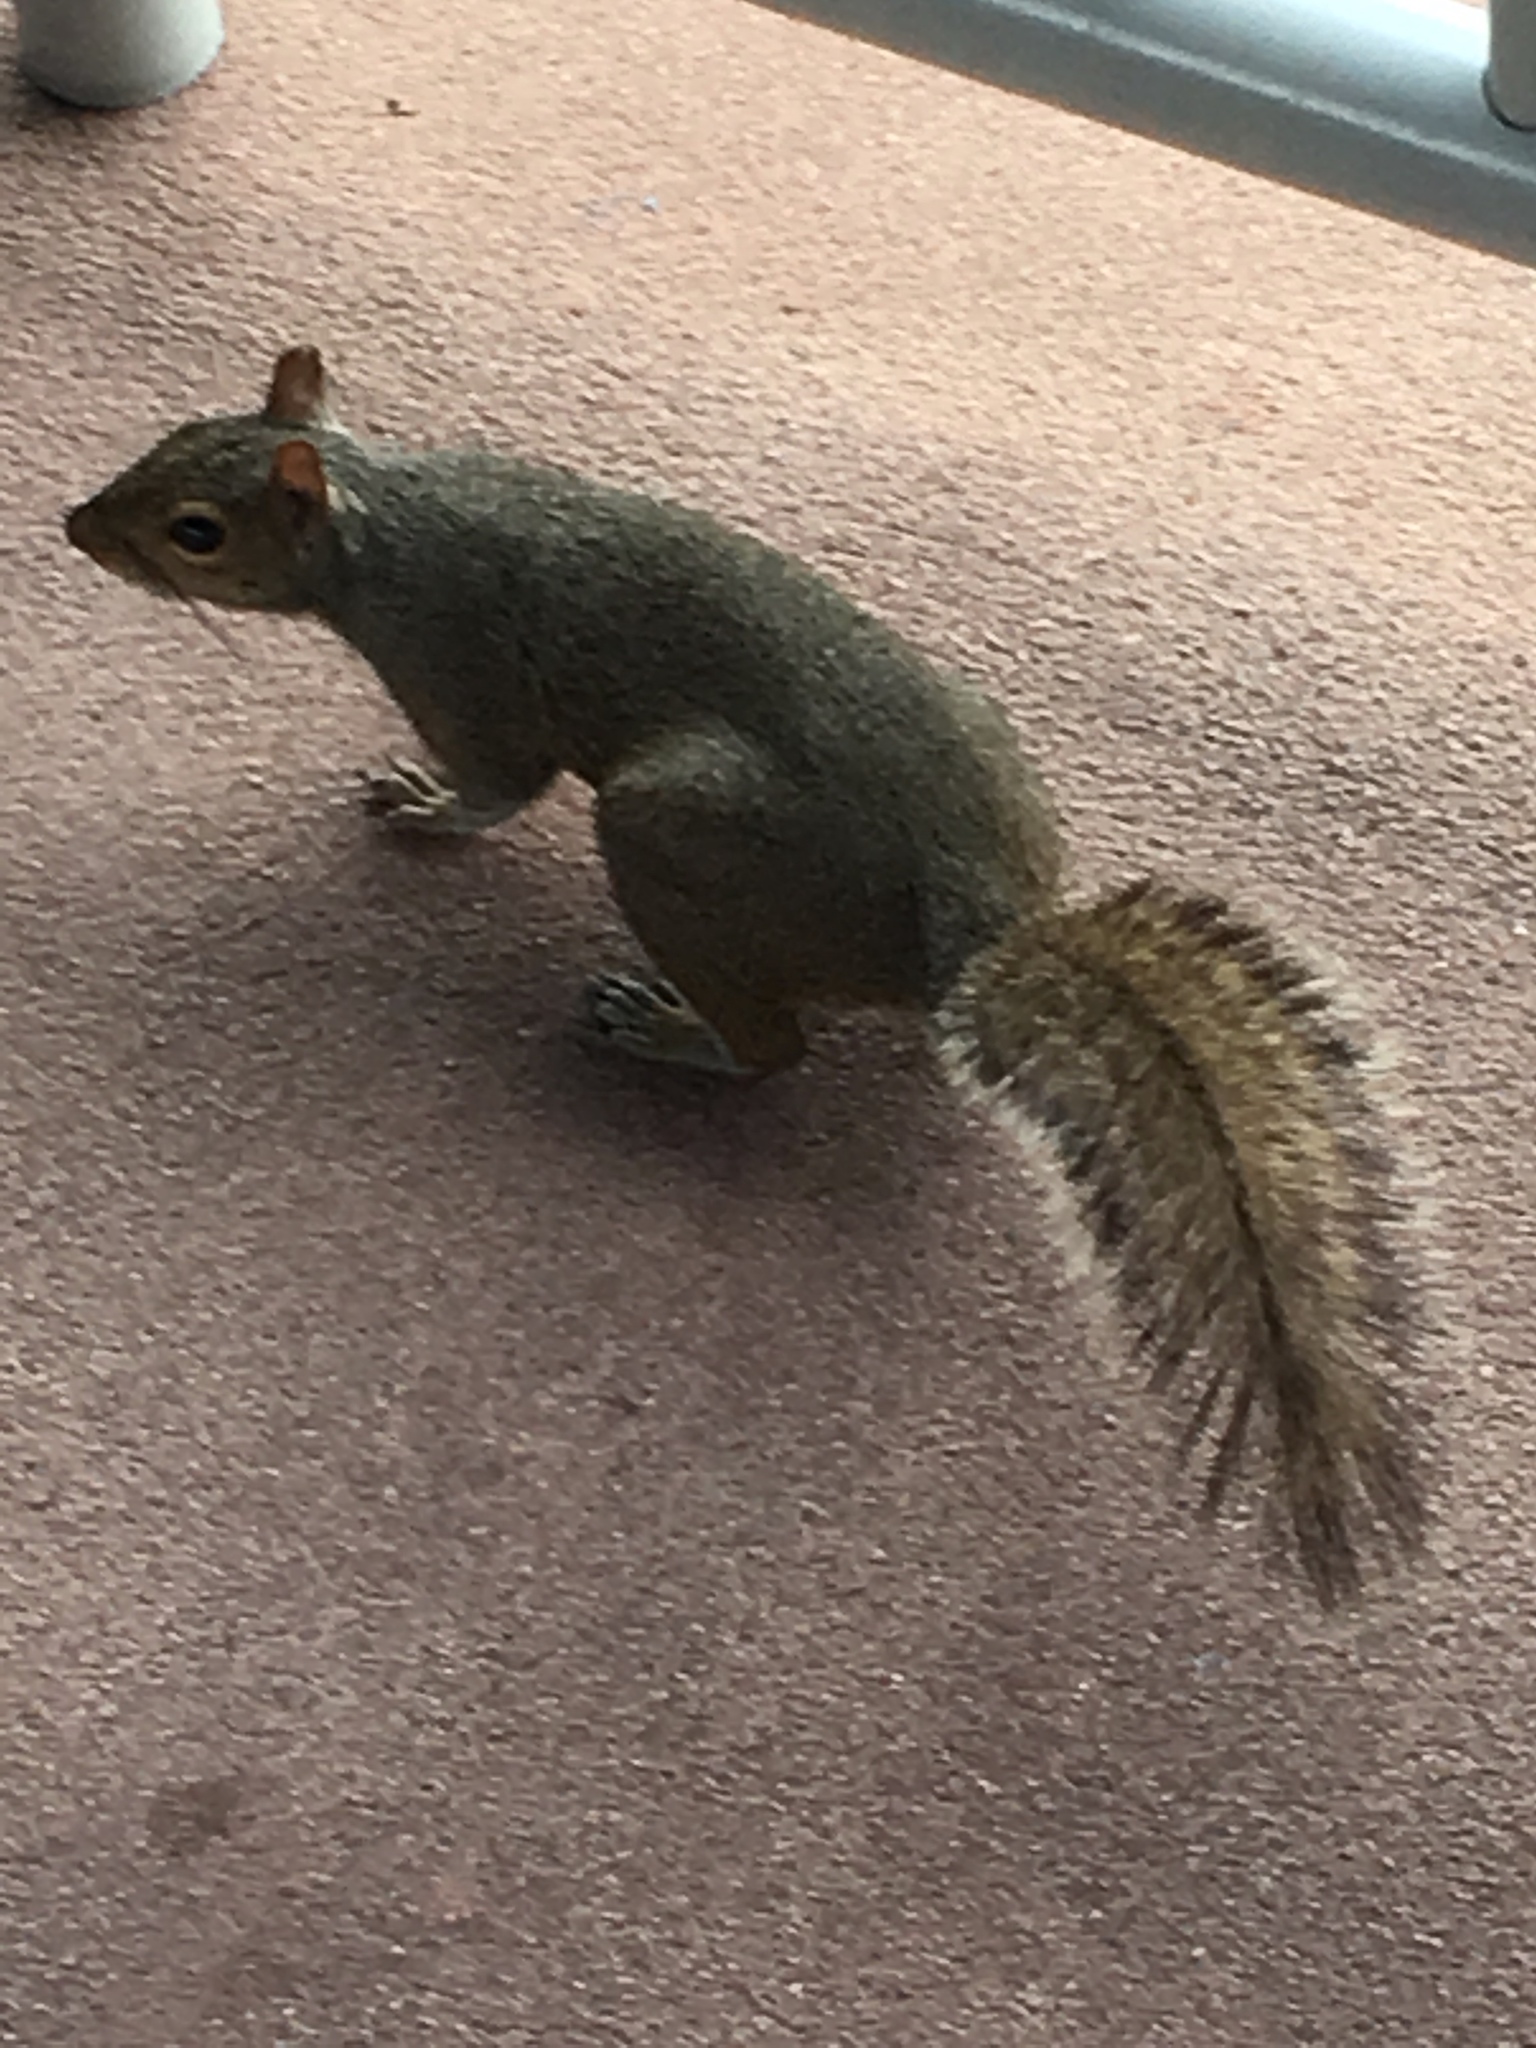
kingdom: Animalia
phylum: Chordata
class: Mammalia
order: Rodentia
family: Sciuridae
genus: Sciurus
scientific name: Sciurus carolinensis
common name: Eastern gray squirrel
